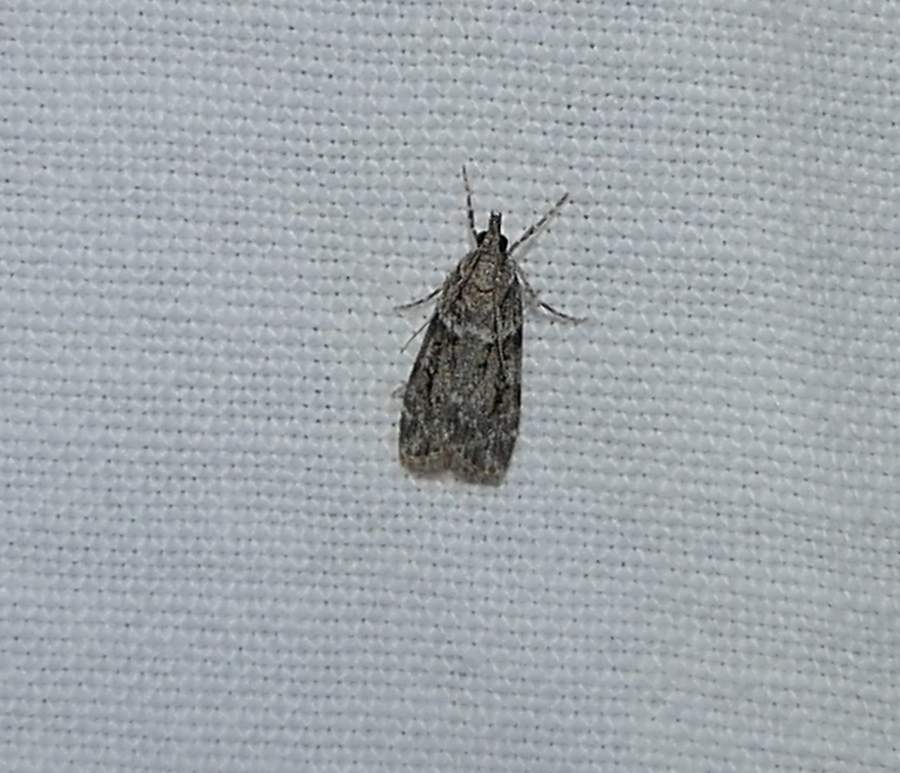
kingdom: Animalia
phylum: Arthropoda
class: Insecta
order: Lepidoptera
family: Crambidae
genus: Scoparia
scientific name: Scoparia biplagialis
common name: Double-striped scoparia moth
